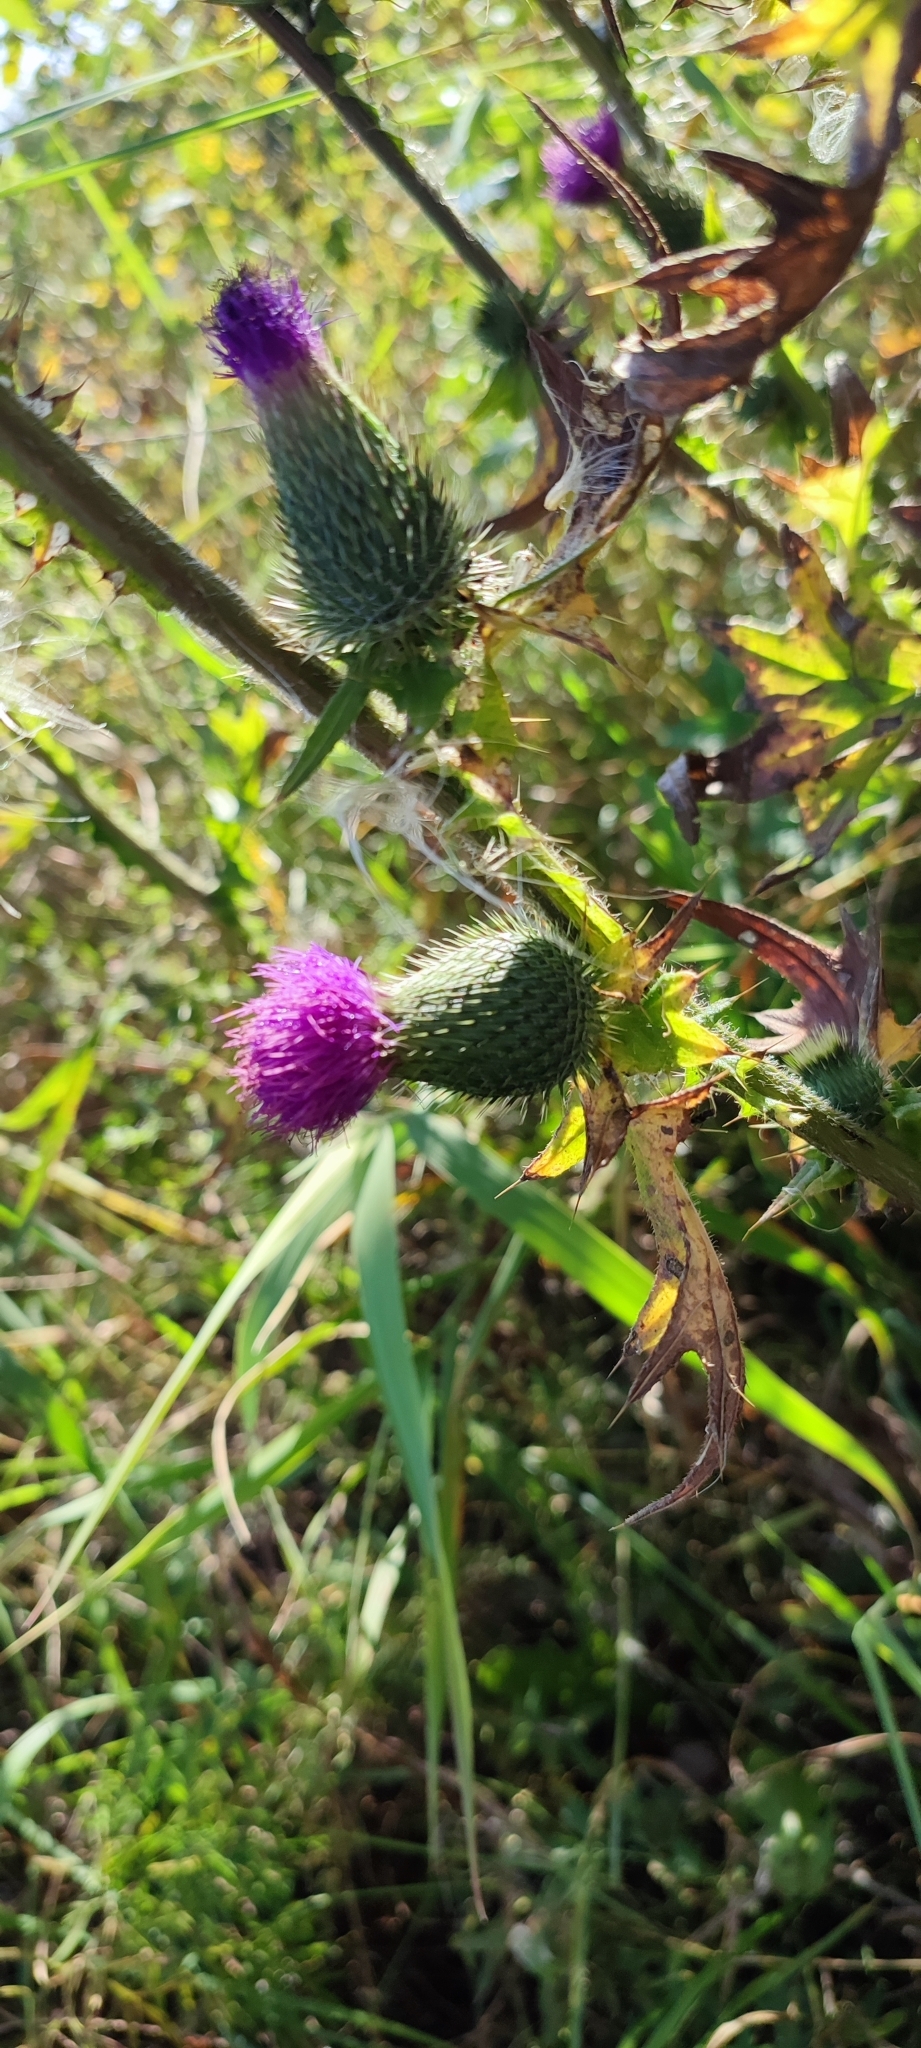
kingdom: Plantae
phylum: Tracheophyta
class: Magnoliopsida
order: Asterales
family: Asteraceae
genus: Cirsium
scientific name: Cirsium vulgare
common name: Bull thistle
